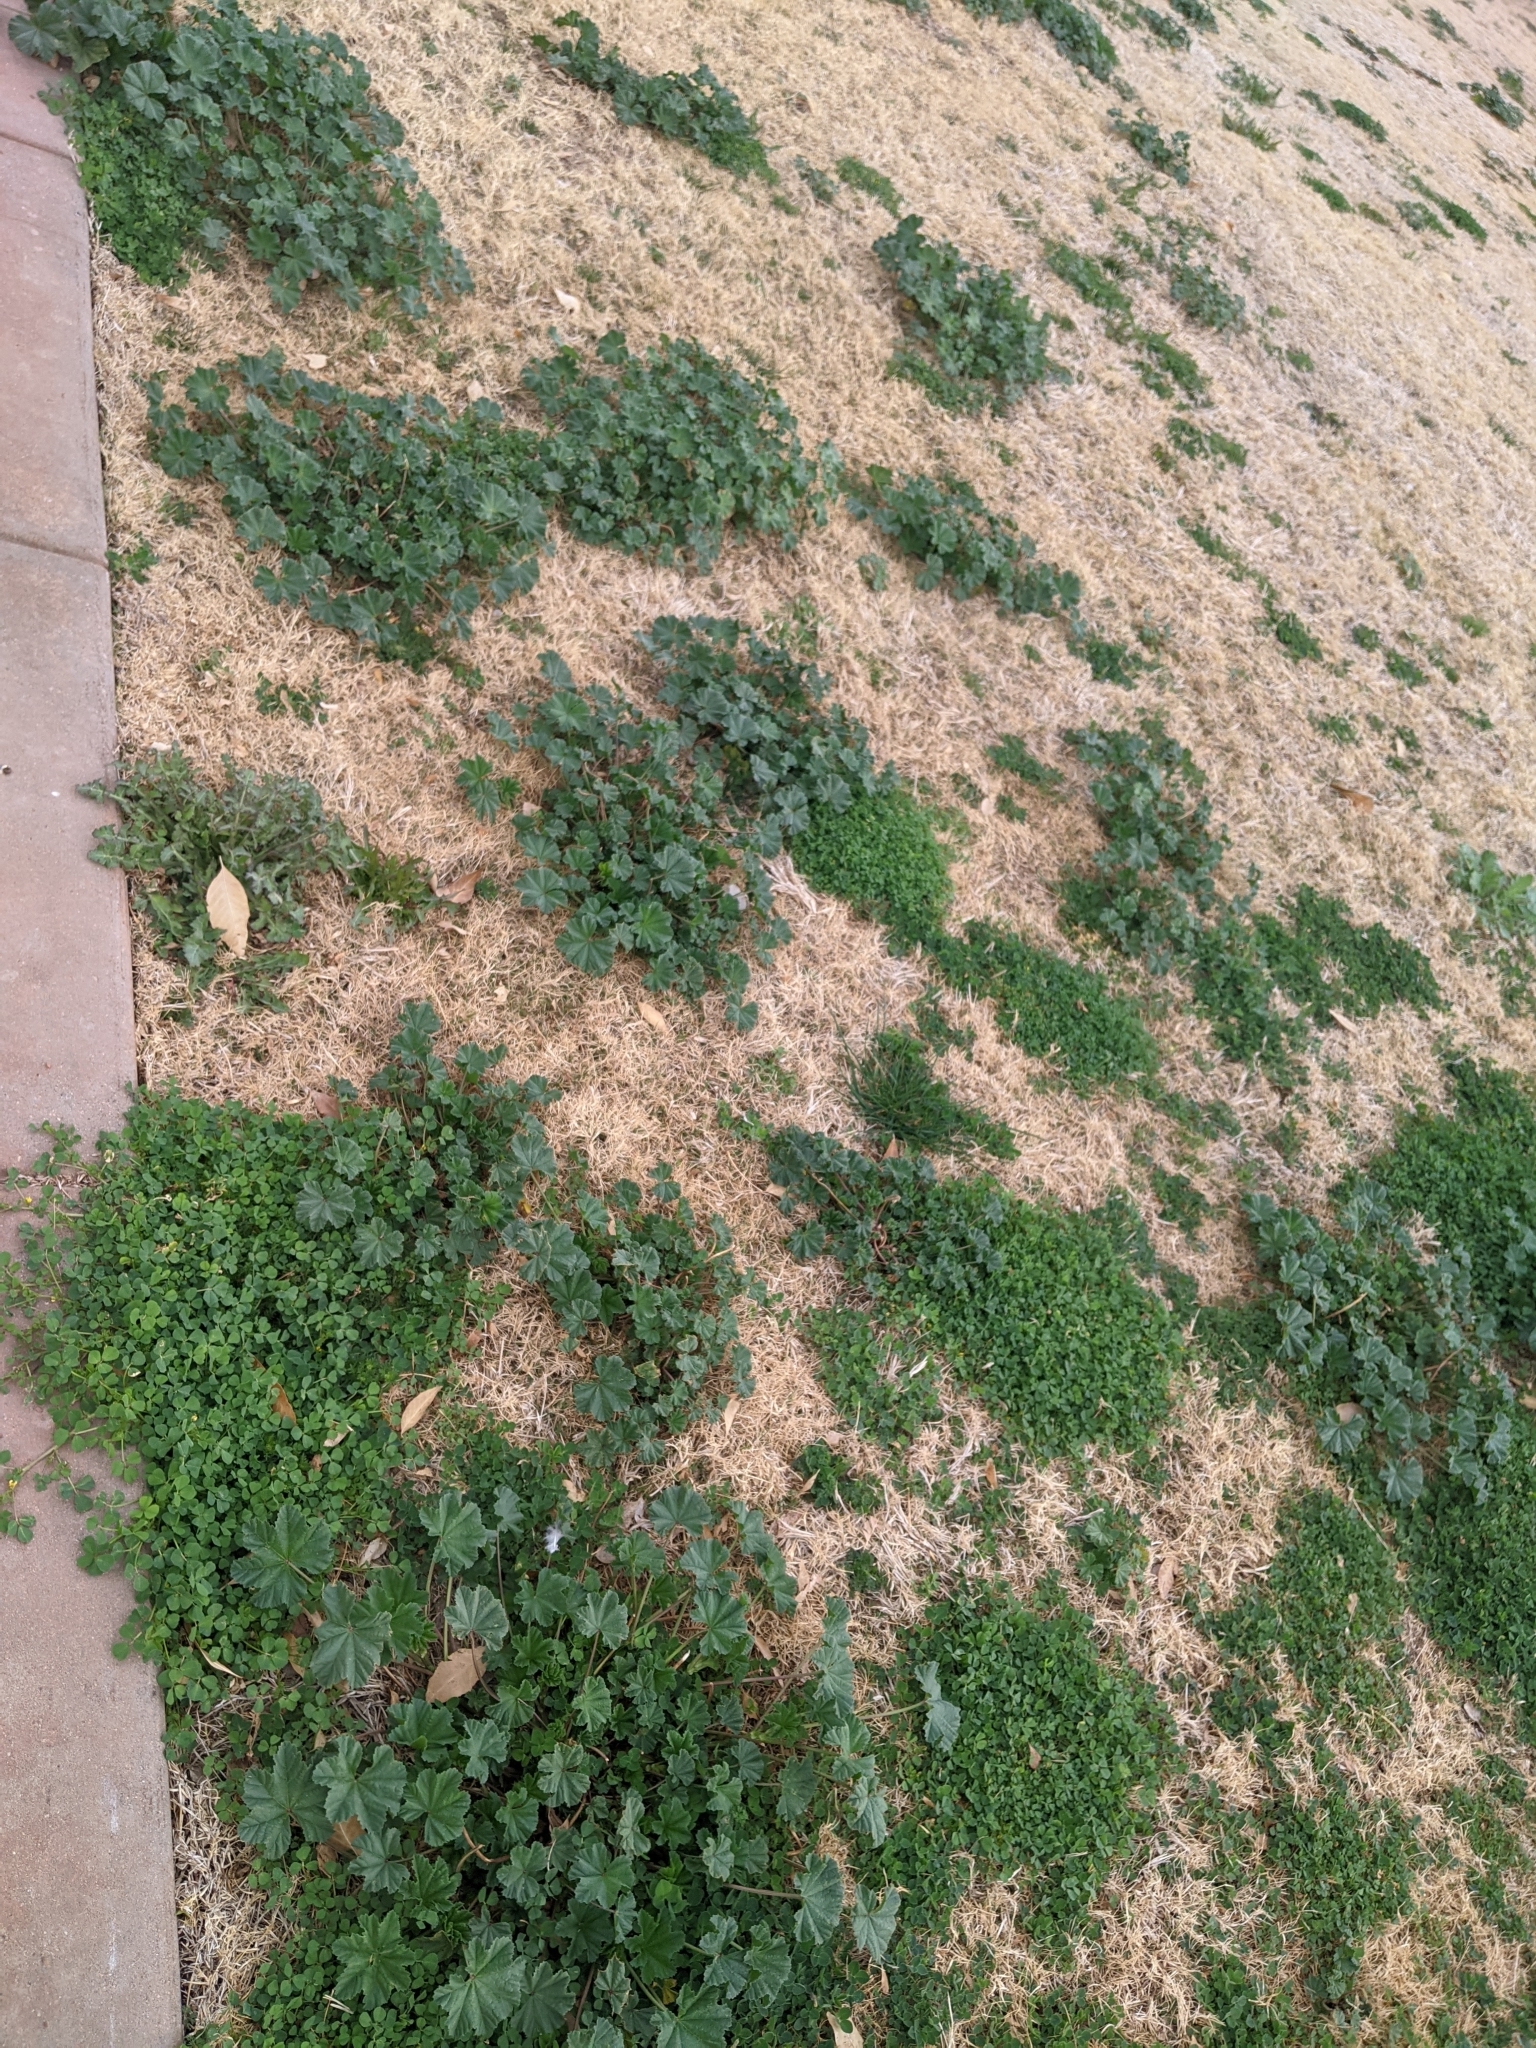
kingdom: Plantae
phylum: Tracheophyta
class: Magnoliopsida
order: Malvales
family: Malvaceae
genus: Malva
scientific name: Malva parviflora
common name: Least mallow
